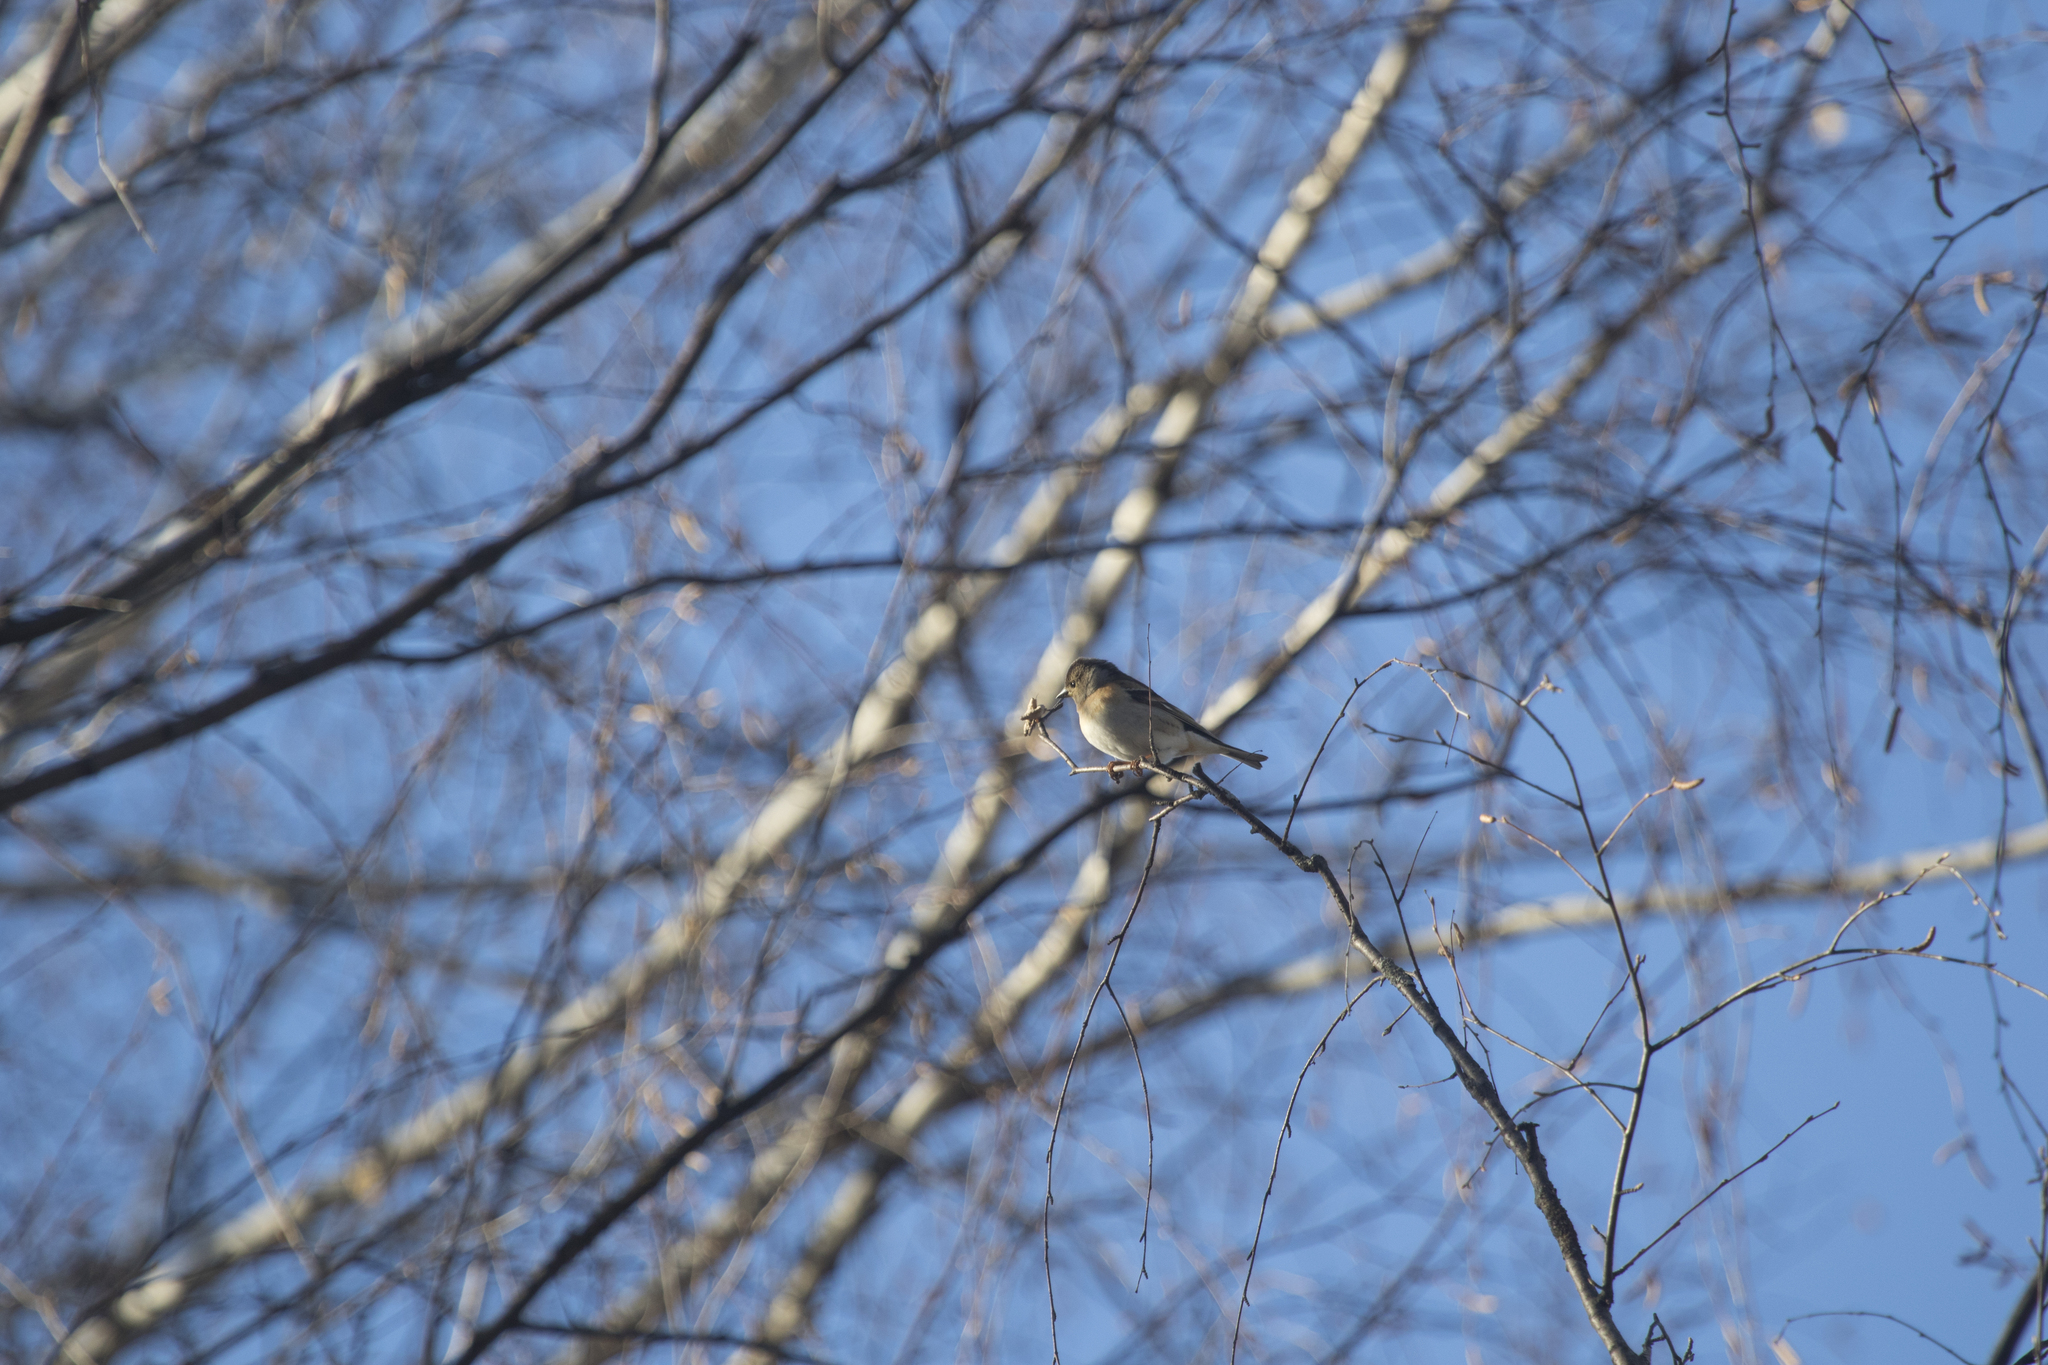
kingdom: Animalia
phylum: Chordata
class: Aves
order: Passeriformes
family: Fringillidae
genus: Fringilla
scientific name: Fringilla montifringilla
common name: Brambling
